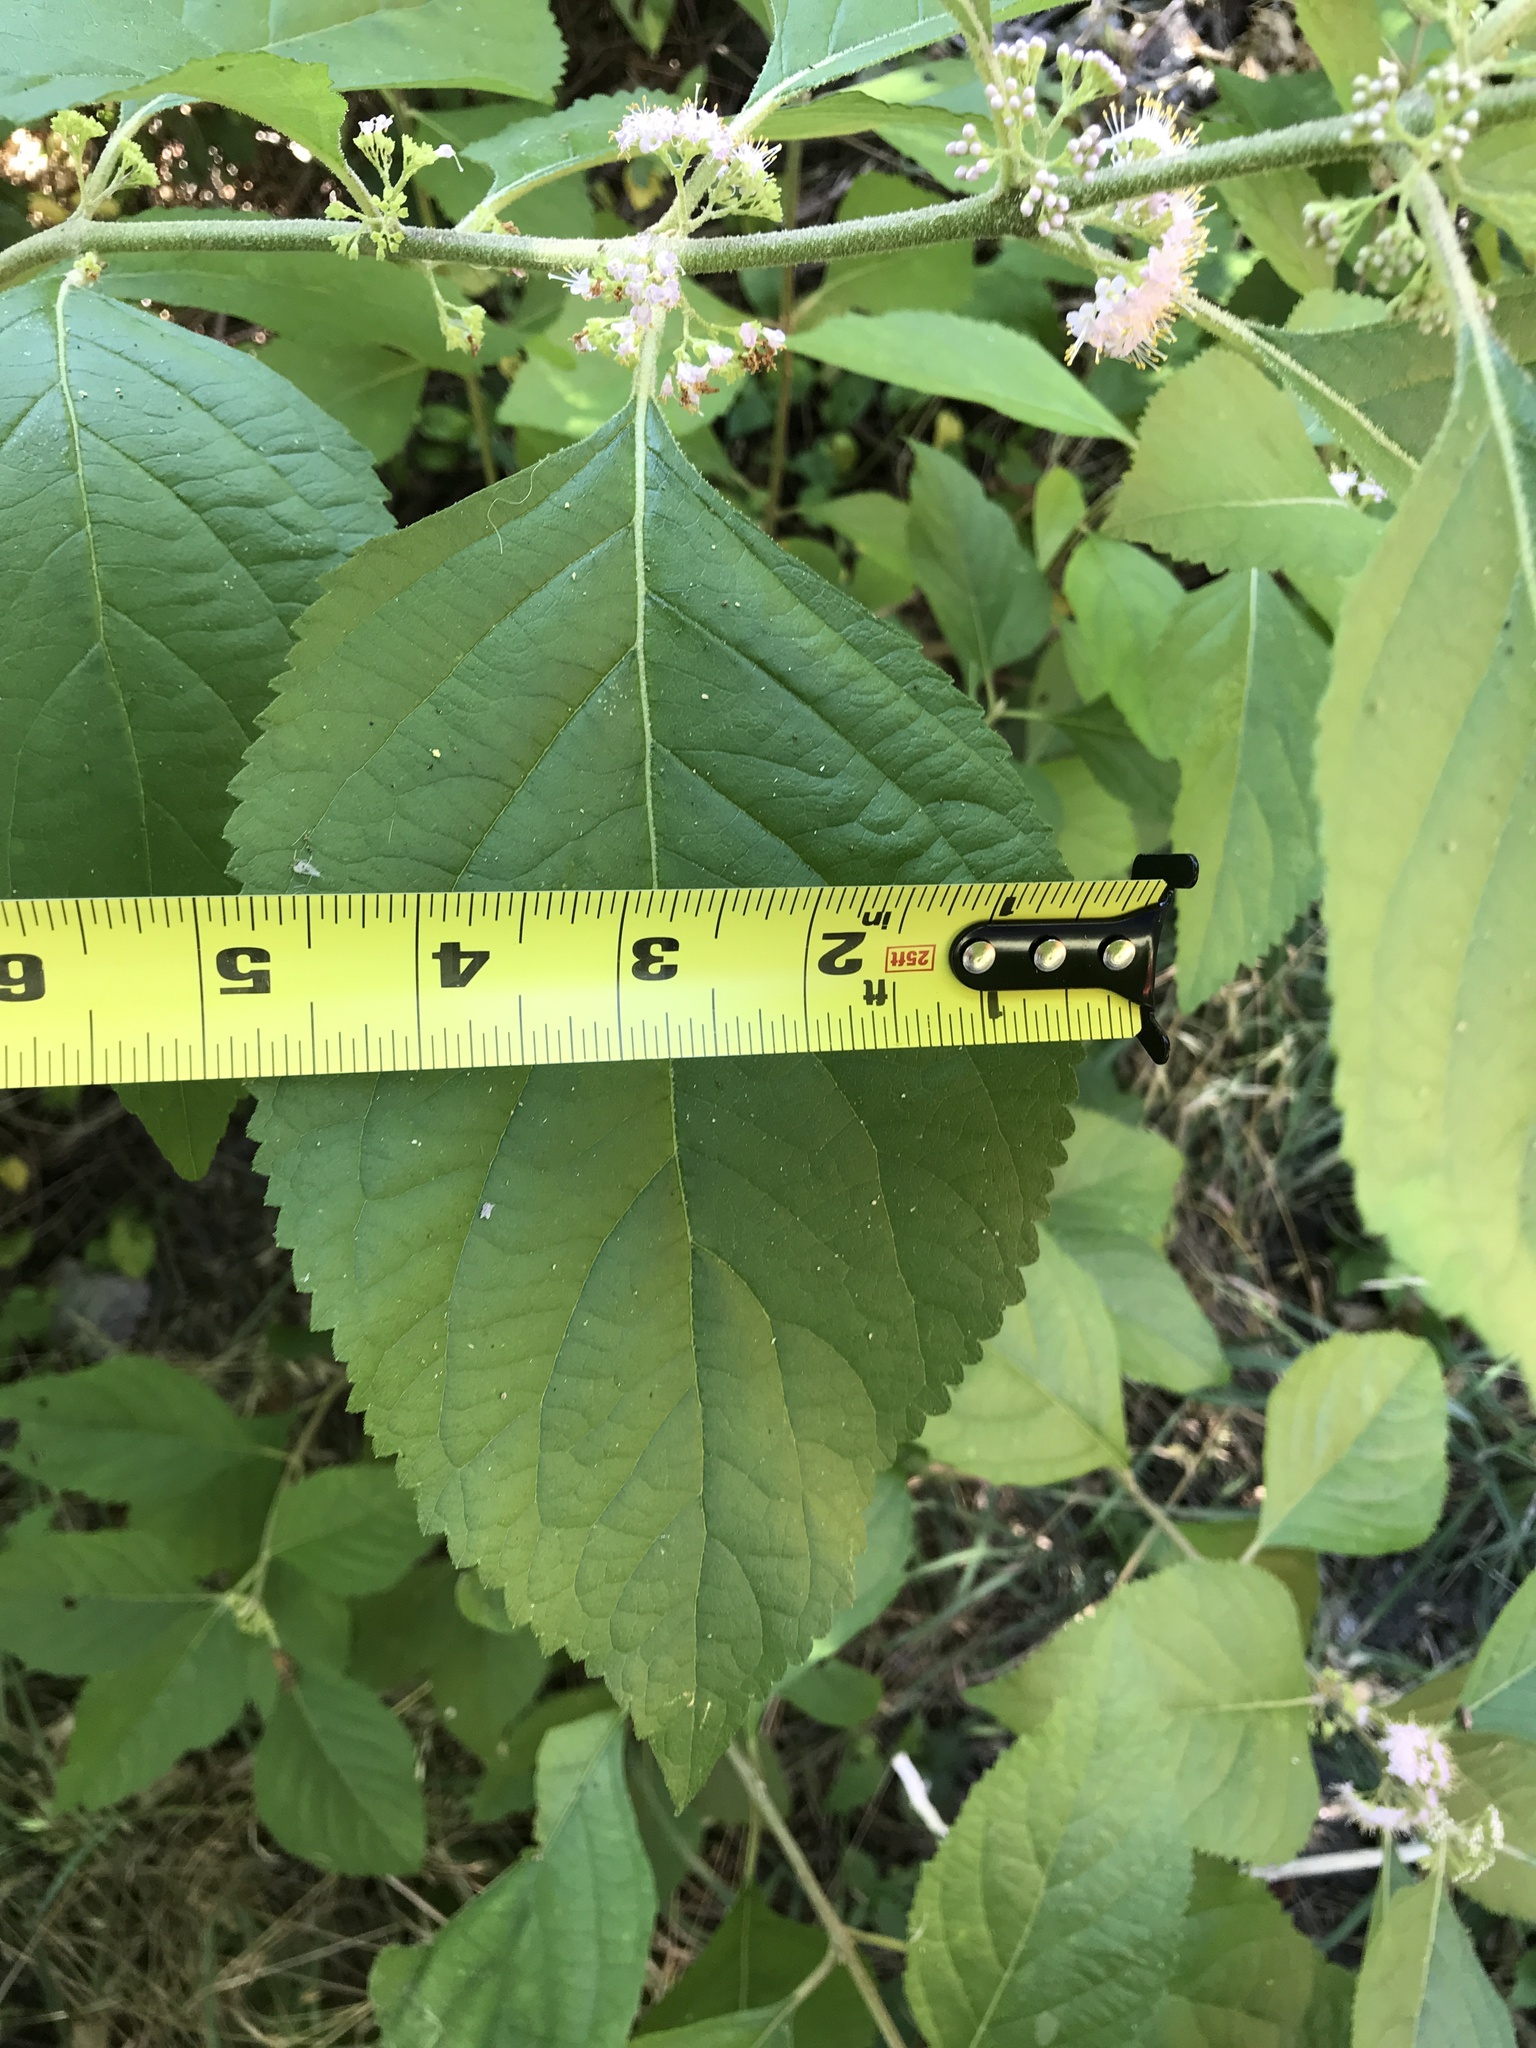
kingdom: Plantae
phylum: Tracheophyta
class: Magnoliopsida
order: Lamiales
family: Lamiaceae
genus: Callicarpa
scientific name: Callicarpa americana
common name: American beautyberry
